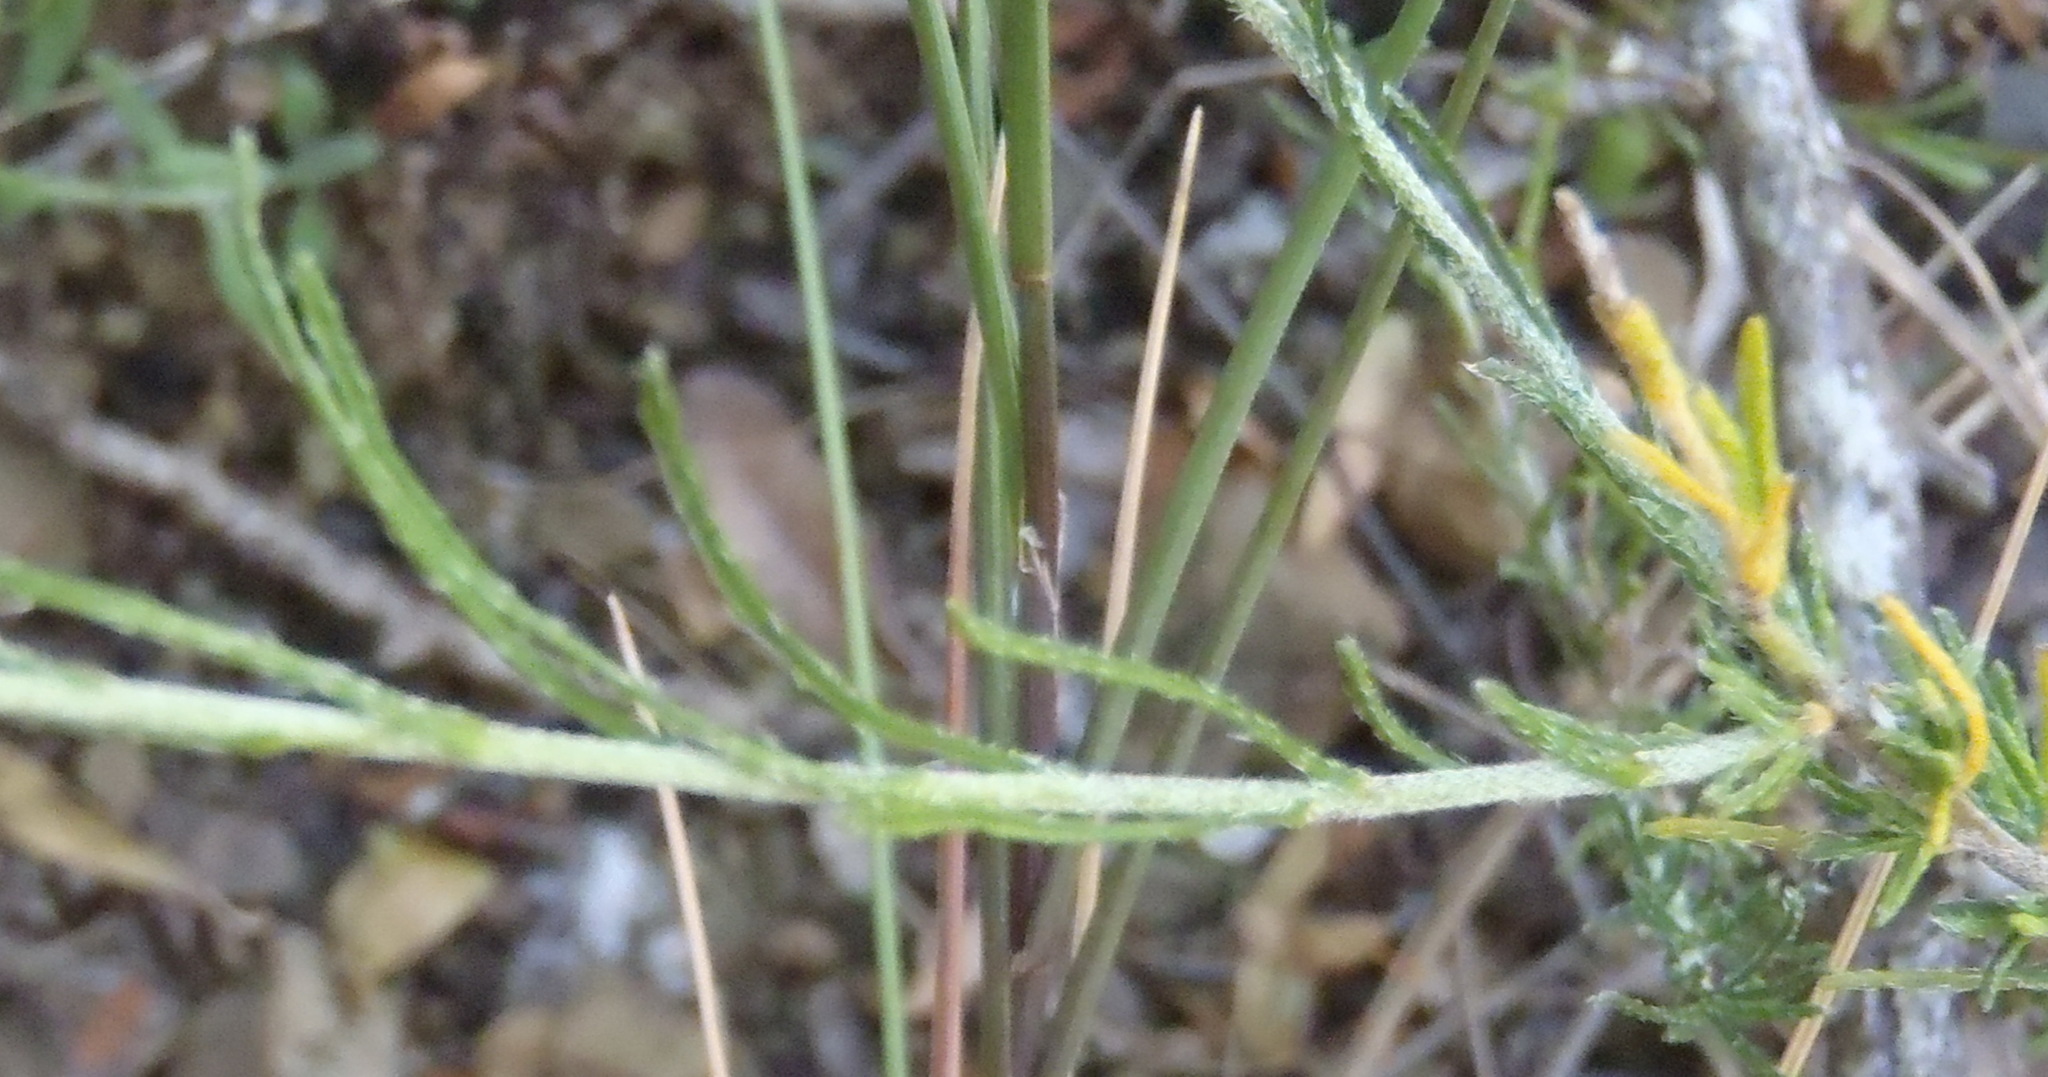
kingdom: Plantae
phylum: Tracheophyta
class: Magnoliopsida
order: Asterales
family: Asteraceae
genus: Felicia
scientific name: Felicia muricata
